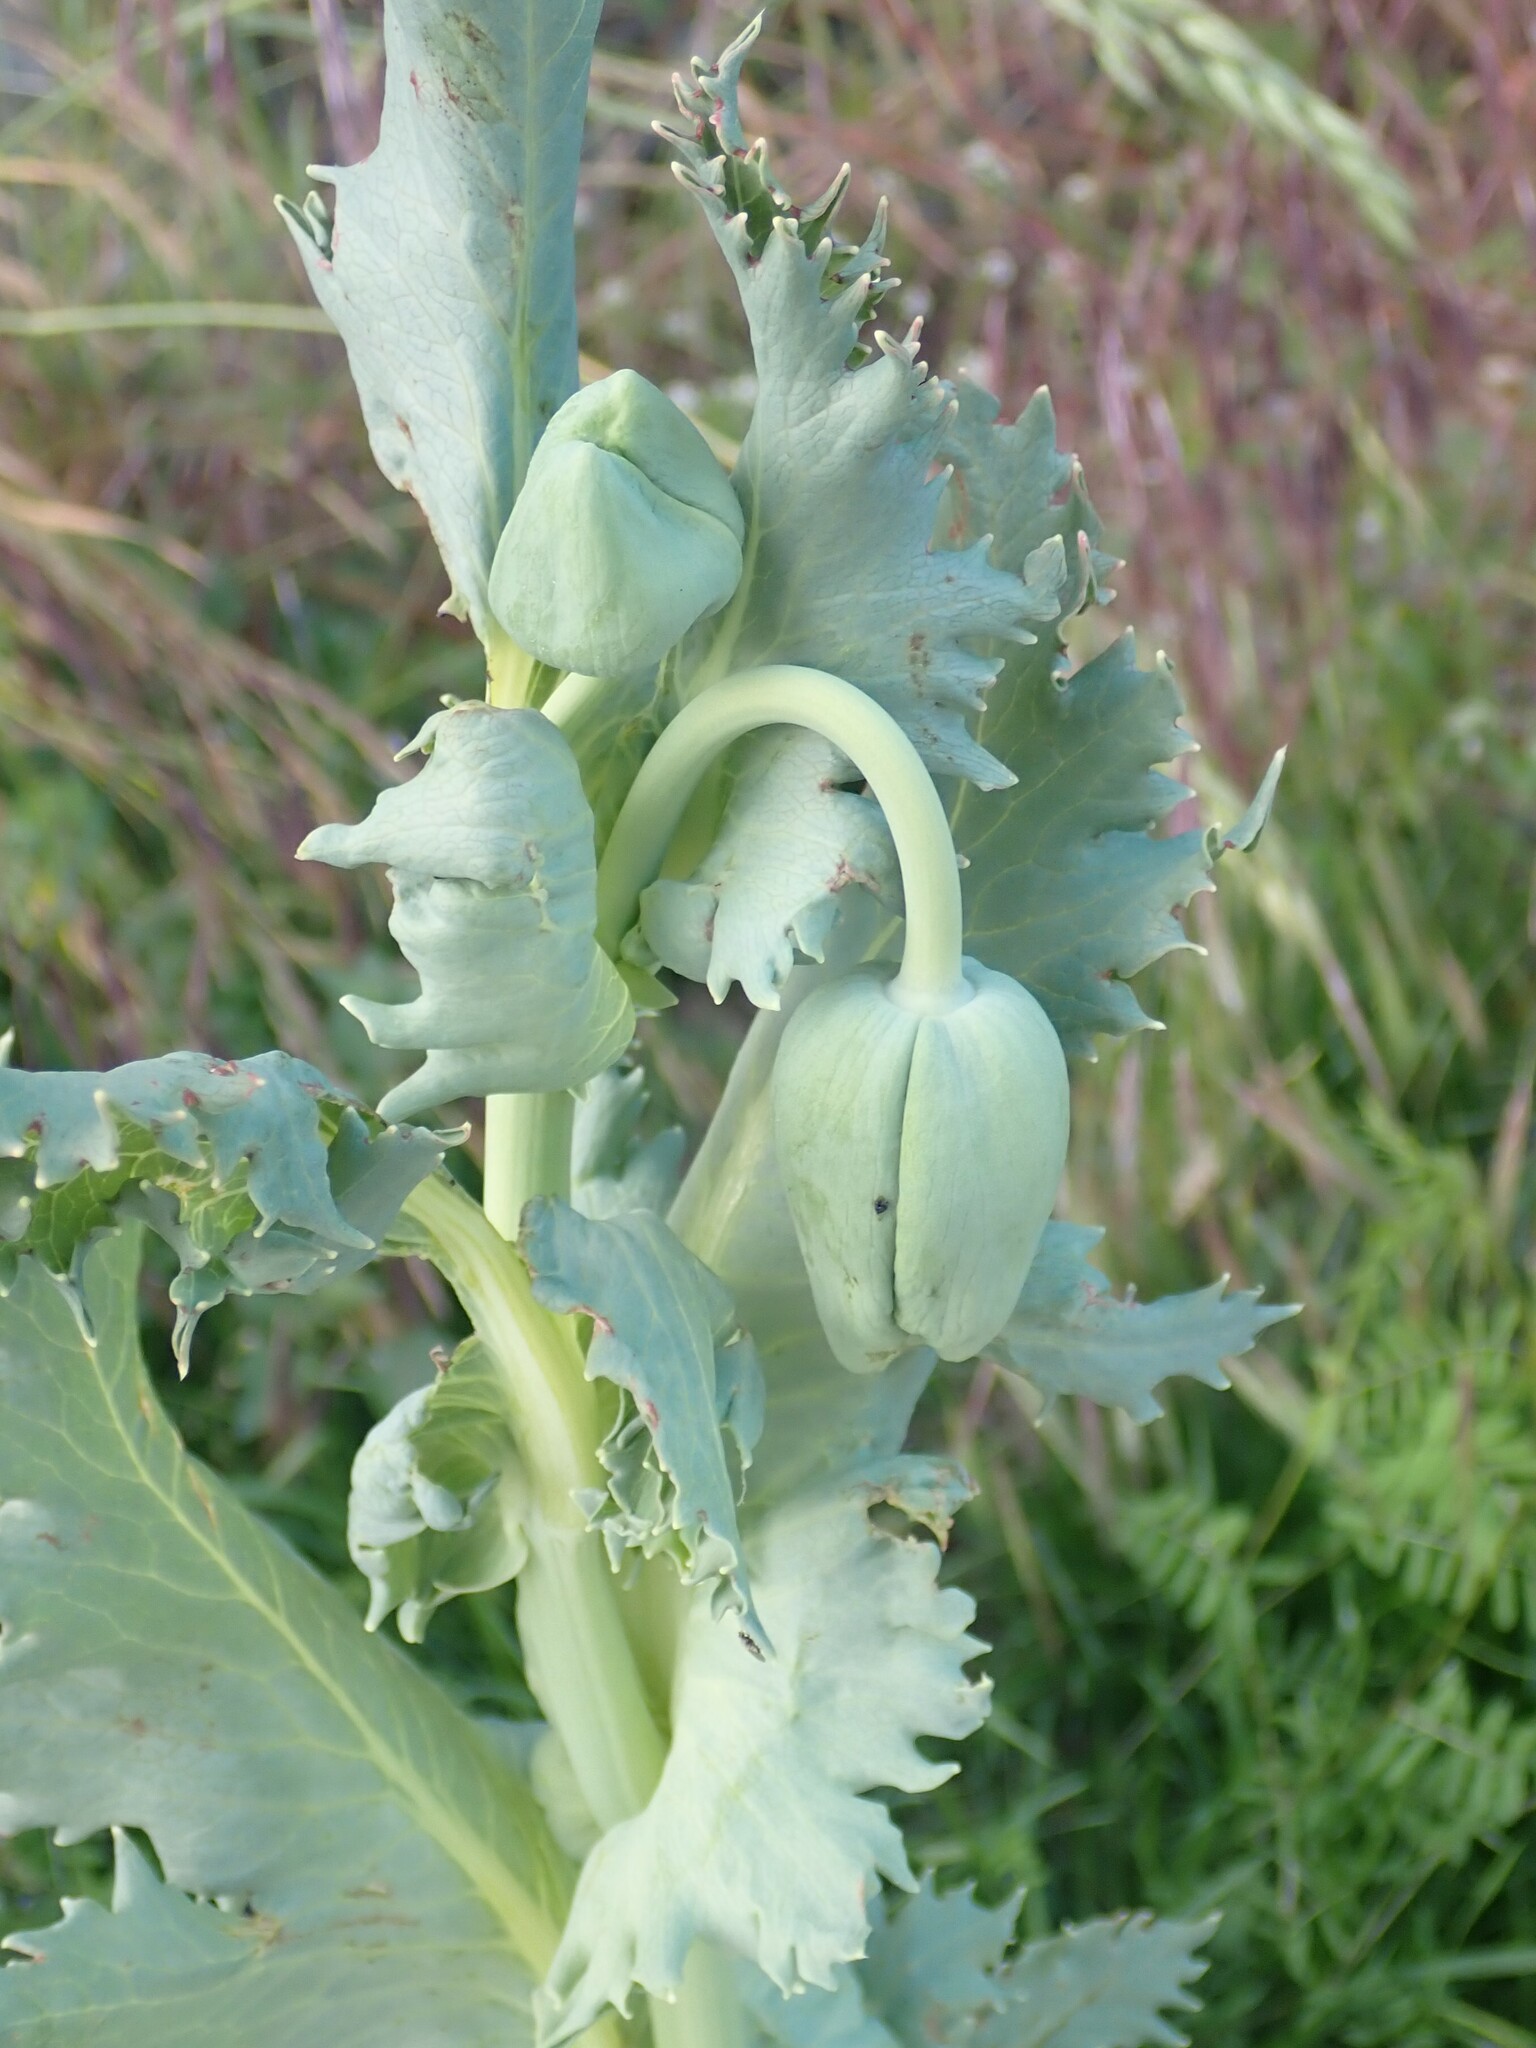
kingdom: Plantae
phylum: Tracheophyta
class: Magnoliopsida
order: Ranunculales
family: Papaveraceae
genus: Papaver
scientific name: Papaver somniferum
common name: Opium poppy
